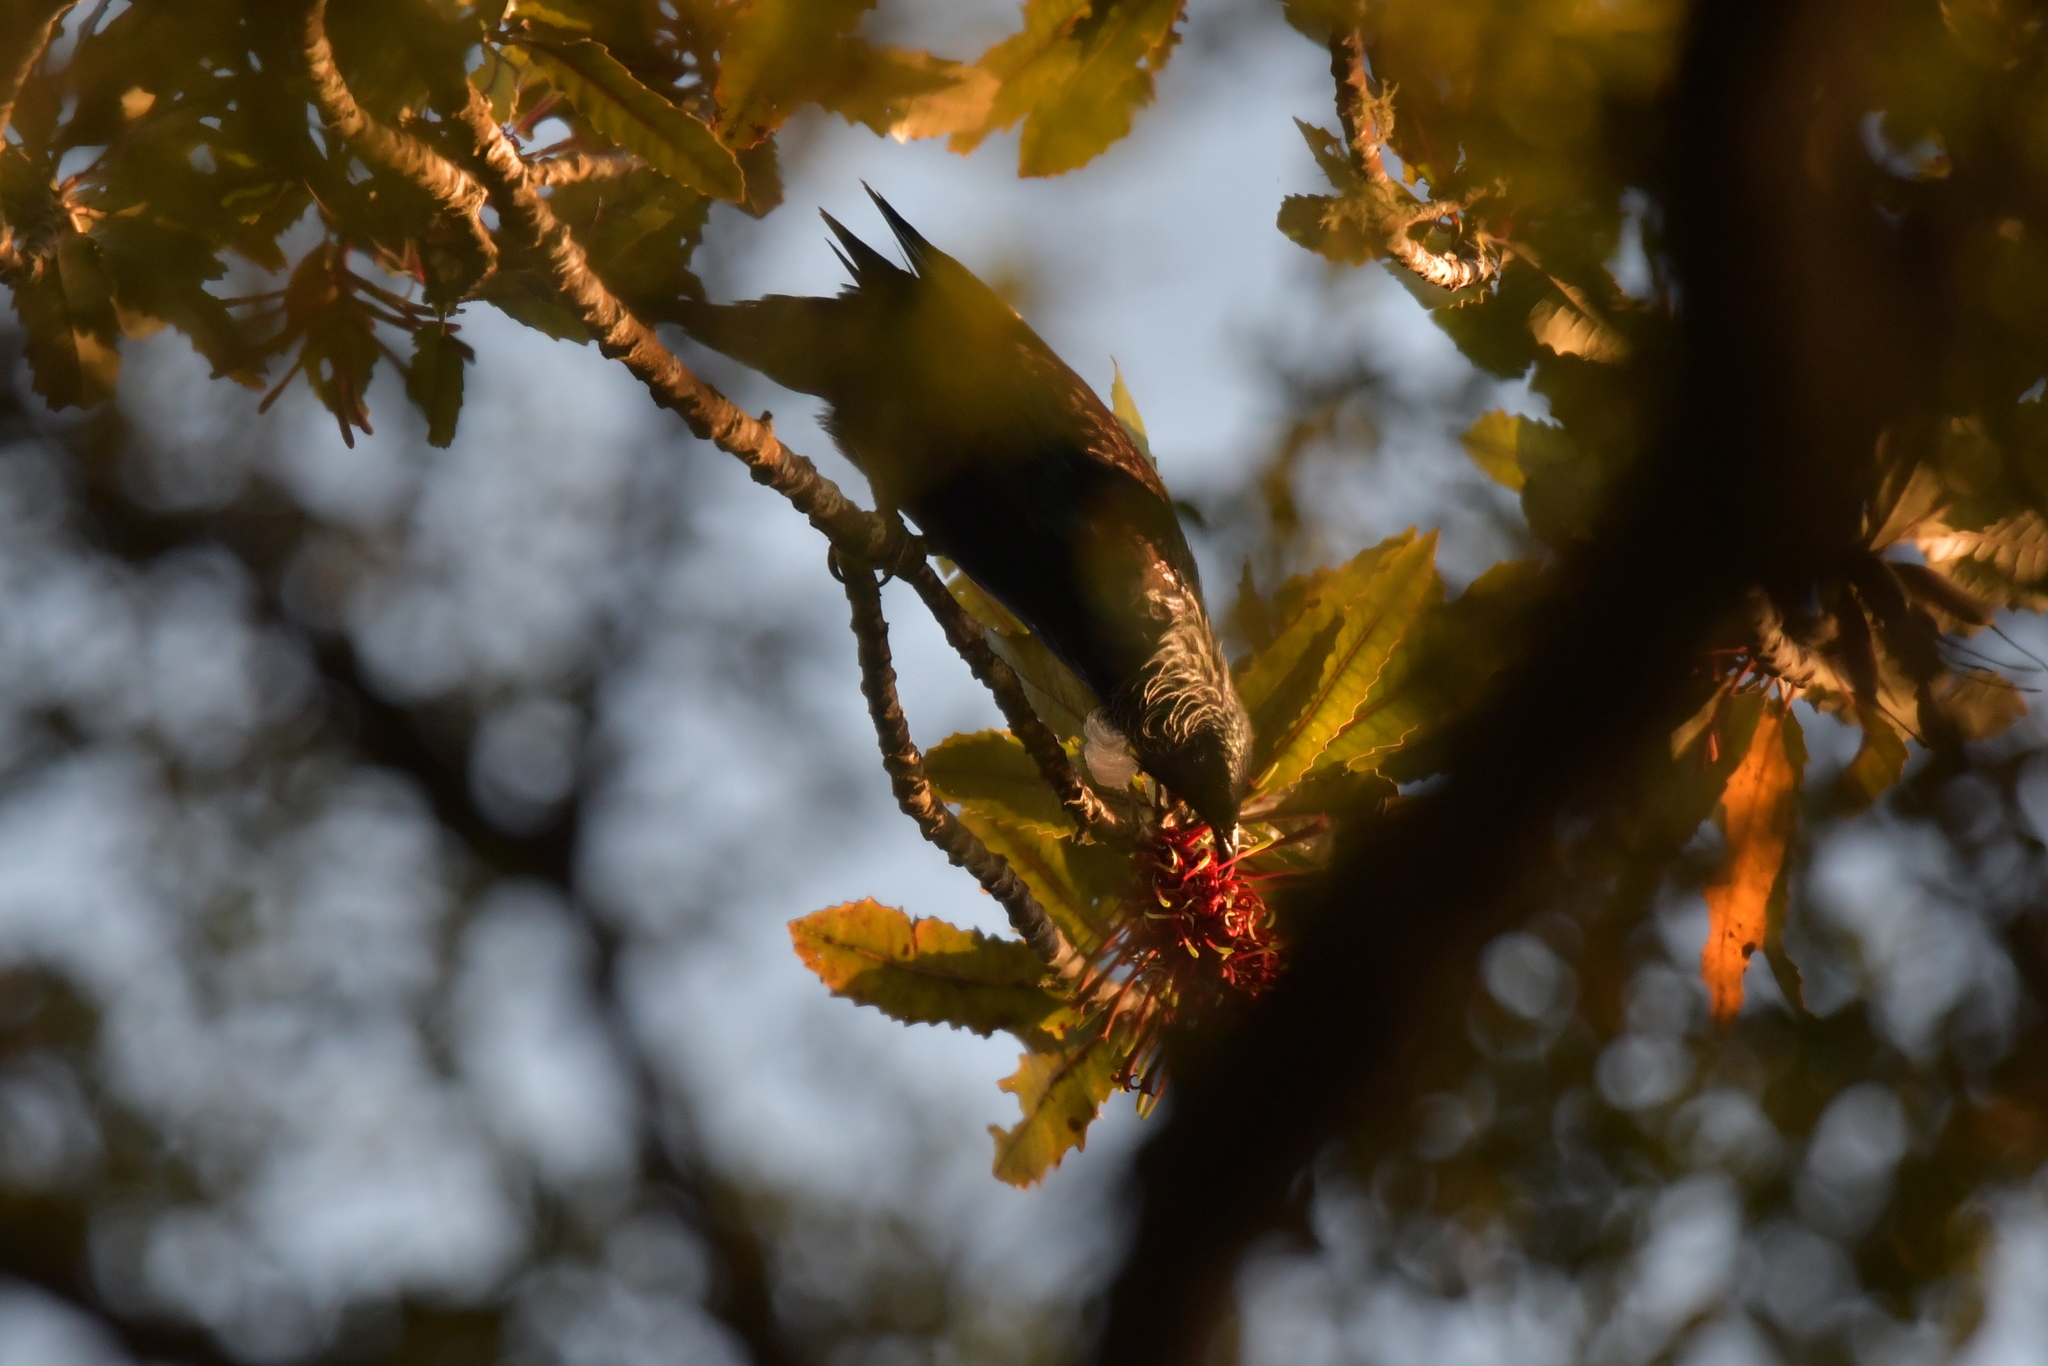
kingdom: Animalia
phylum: Chordata
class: Aves
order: Passeriformes
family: Meliphagidae
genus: Prosthemadera
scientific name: Prosthemadera novaeseelandiae
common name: Tui
